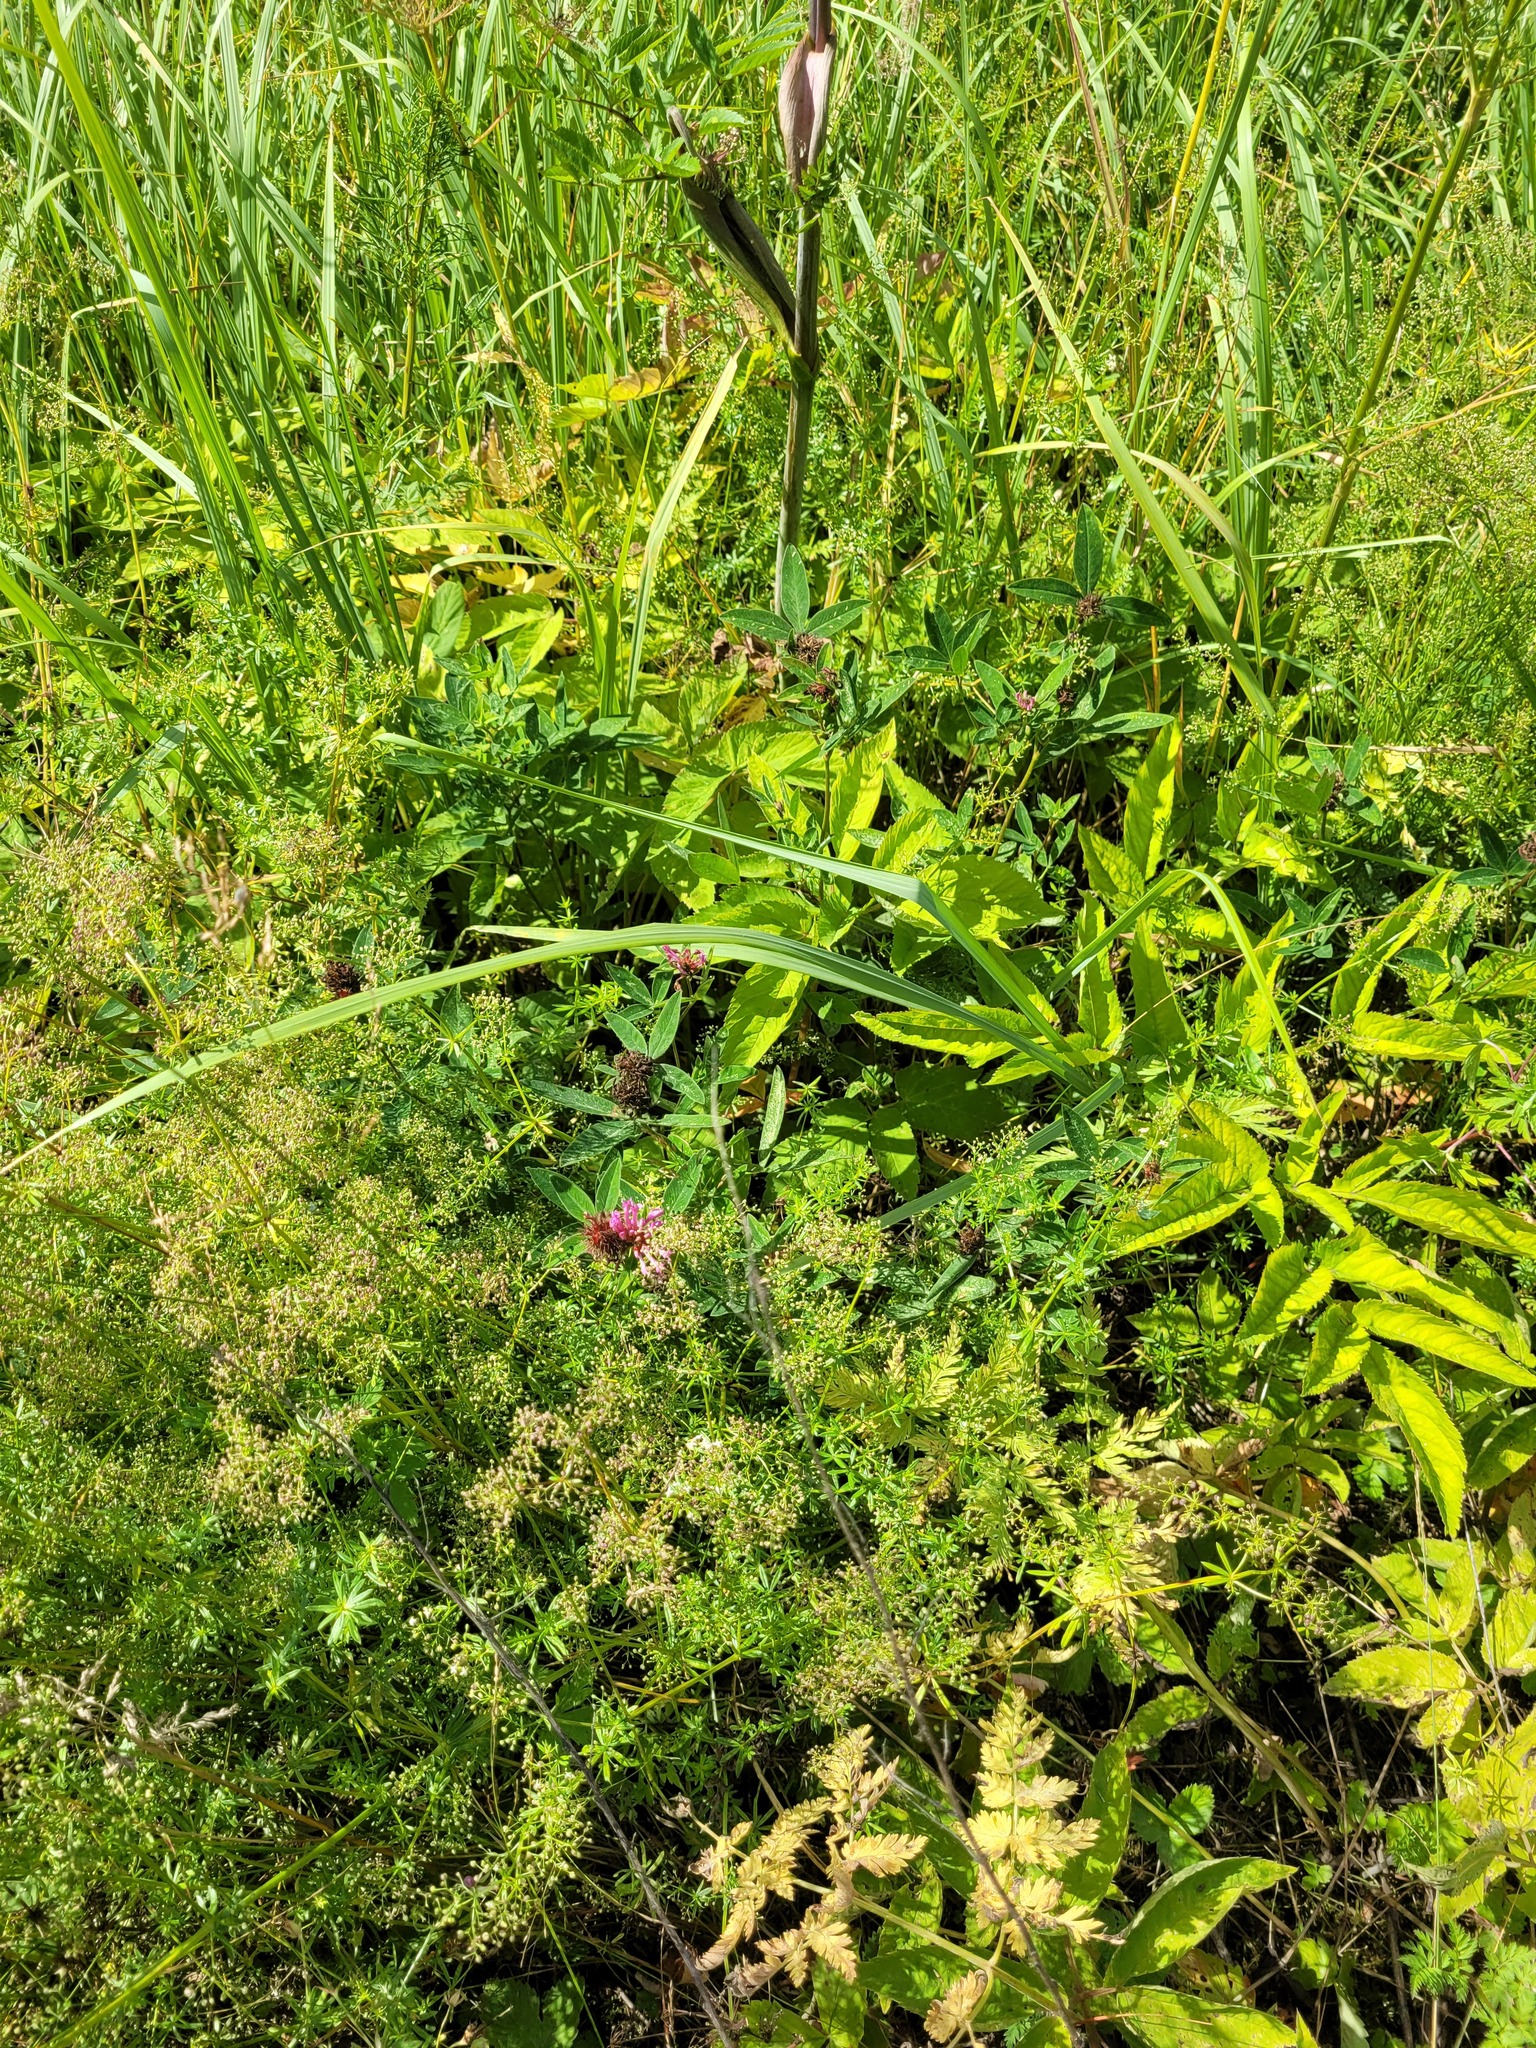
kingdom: Plantae
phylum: Tracheophyta
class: Magnoliopsida
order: Fabales
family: Fabaceae
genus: Trifolium
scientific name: Trifolium medium
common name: Zigzag clover
